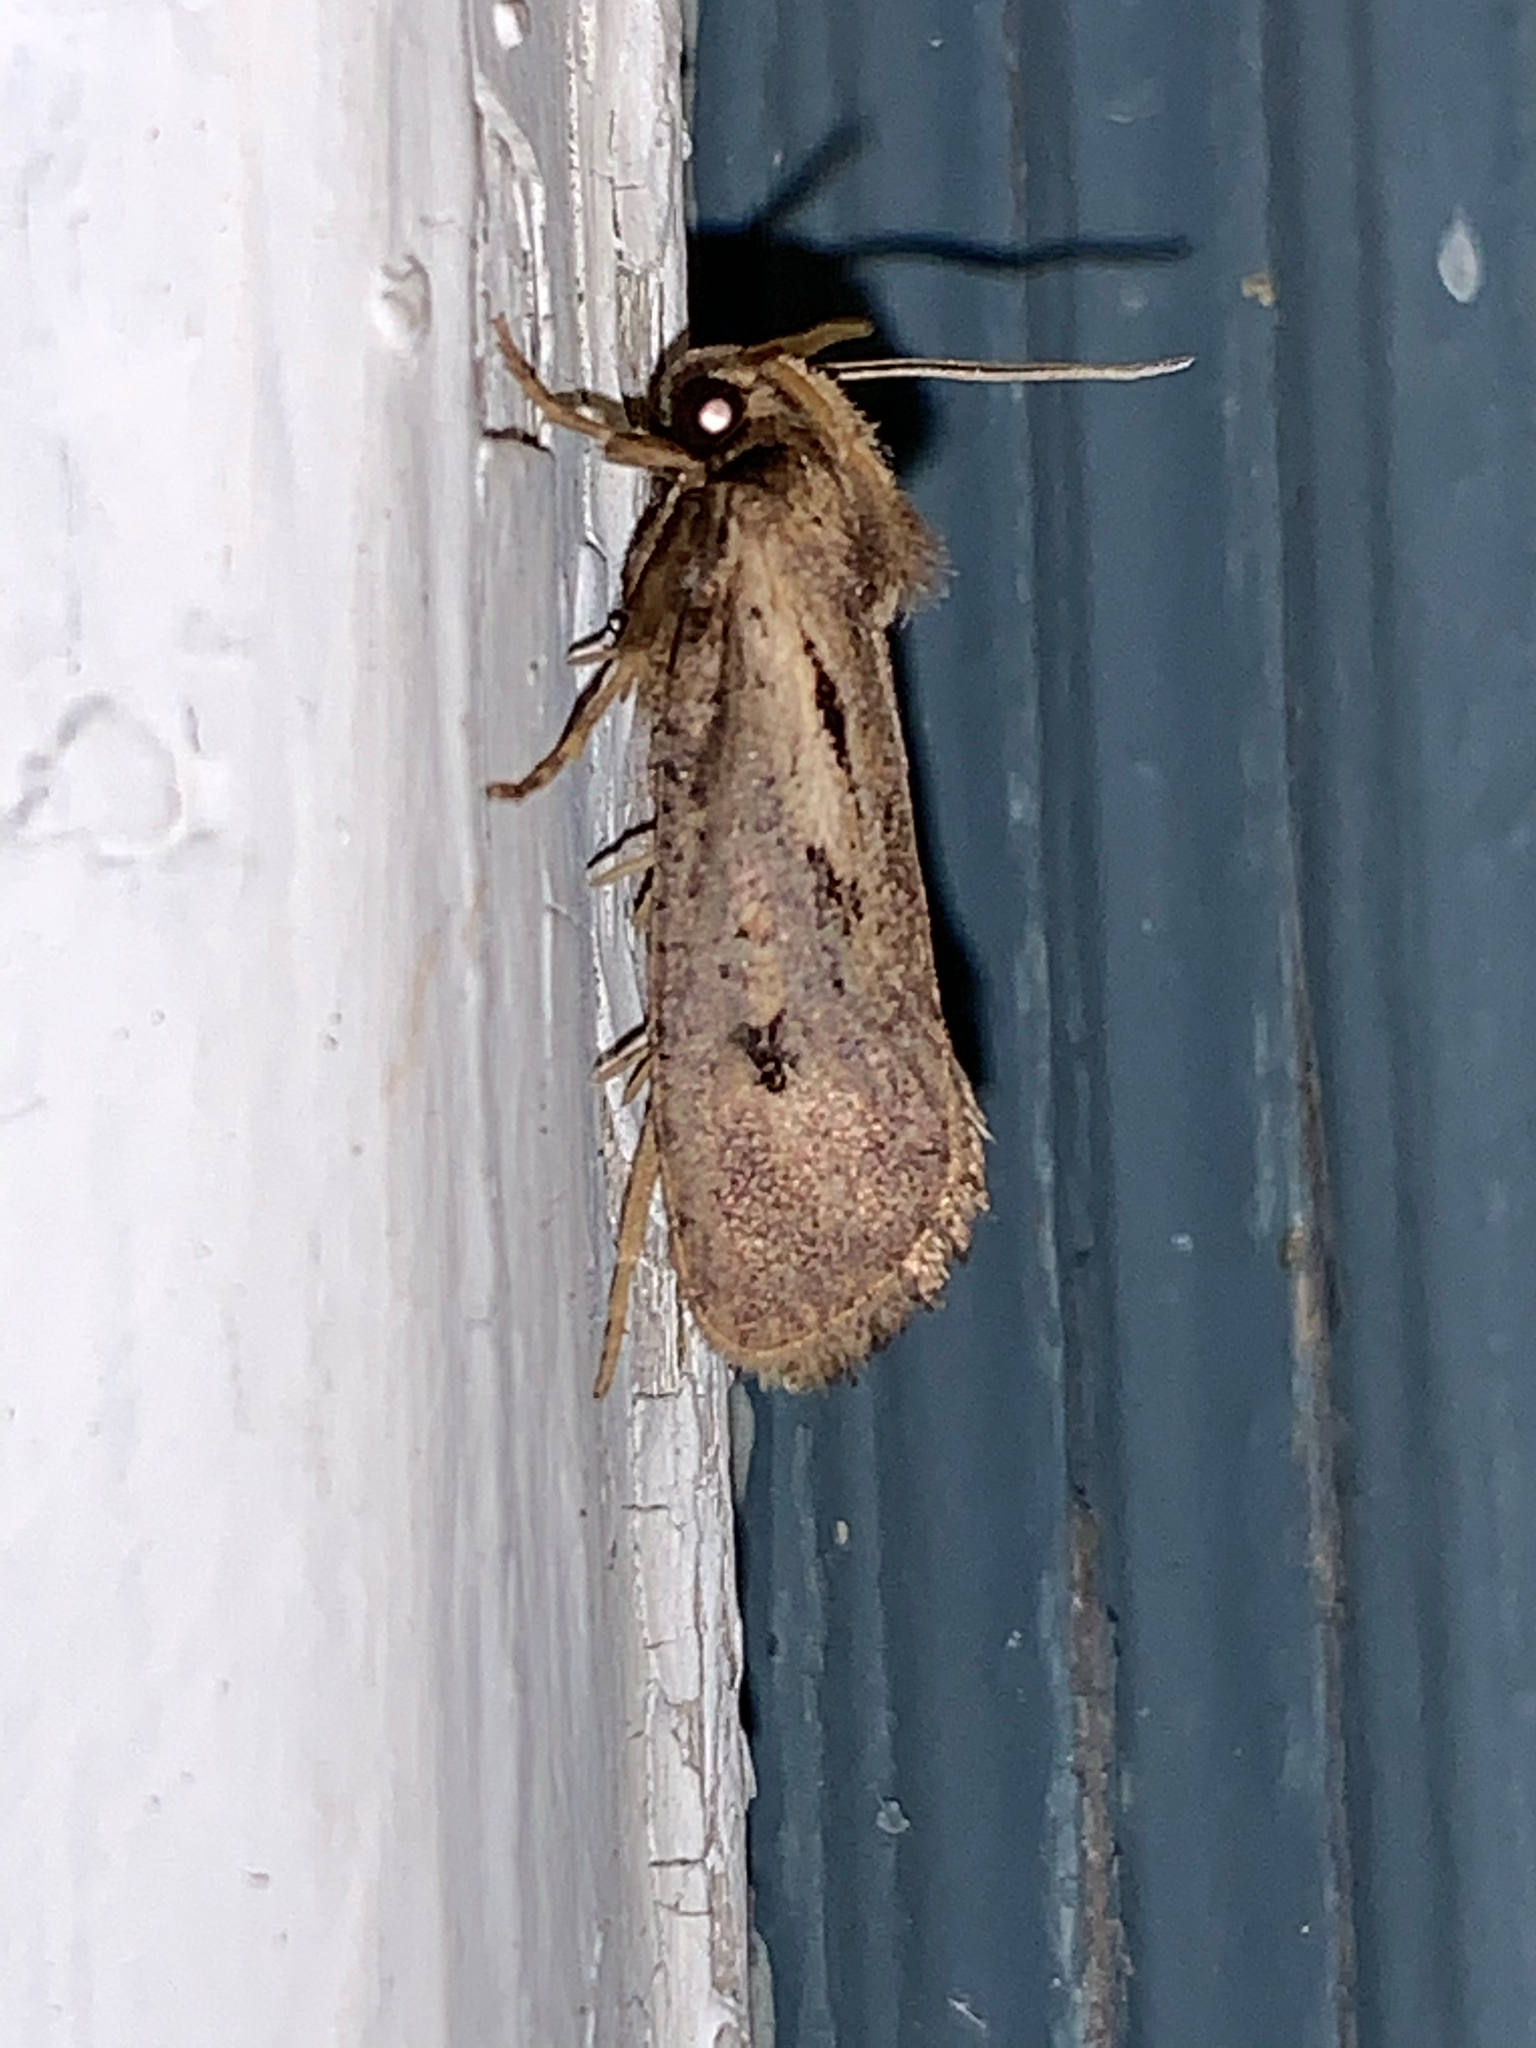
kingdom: Animalia
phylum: Arthropoda
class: Insecta
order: Lepidoptera
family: Tineidae
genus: Acrolophus
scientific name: Acrolophus popeanella
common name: Clemens' grass tubeworm moth
